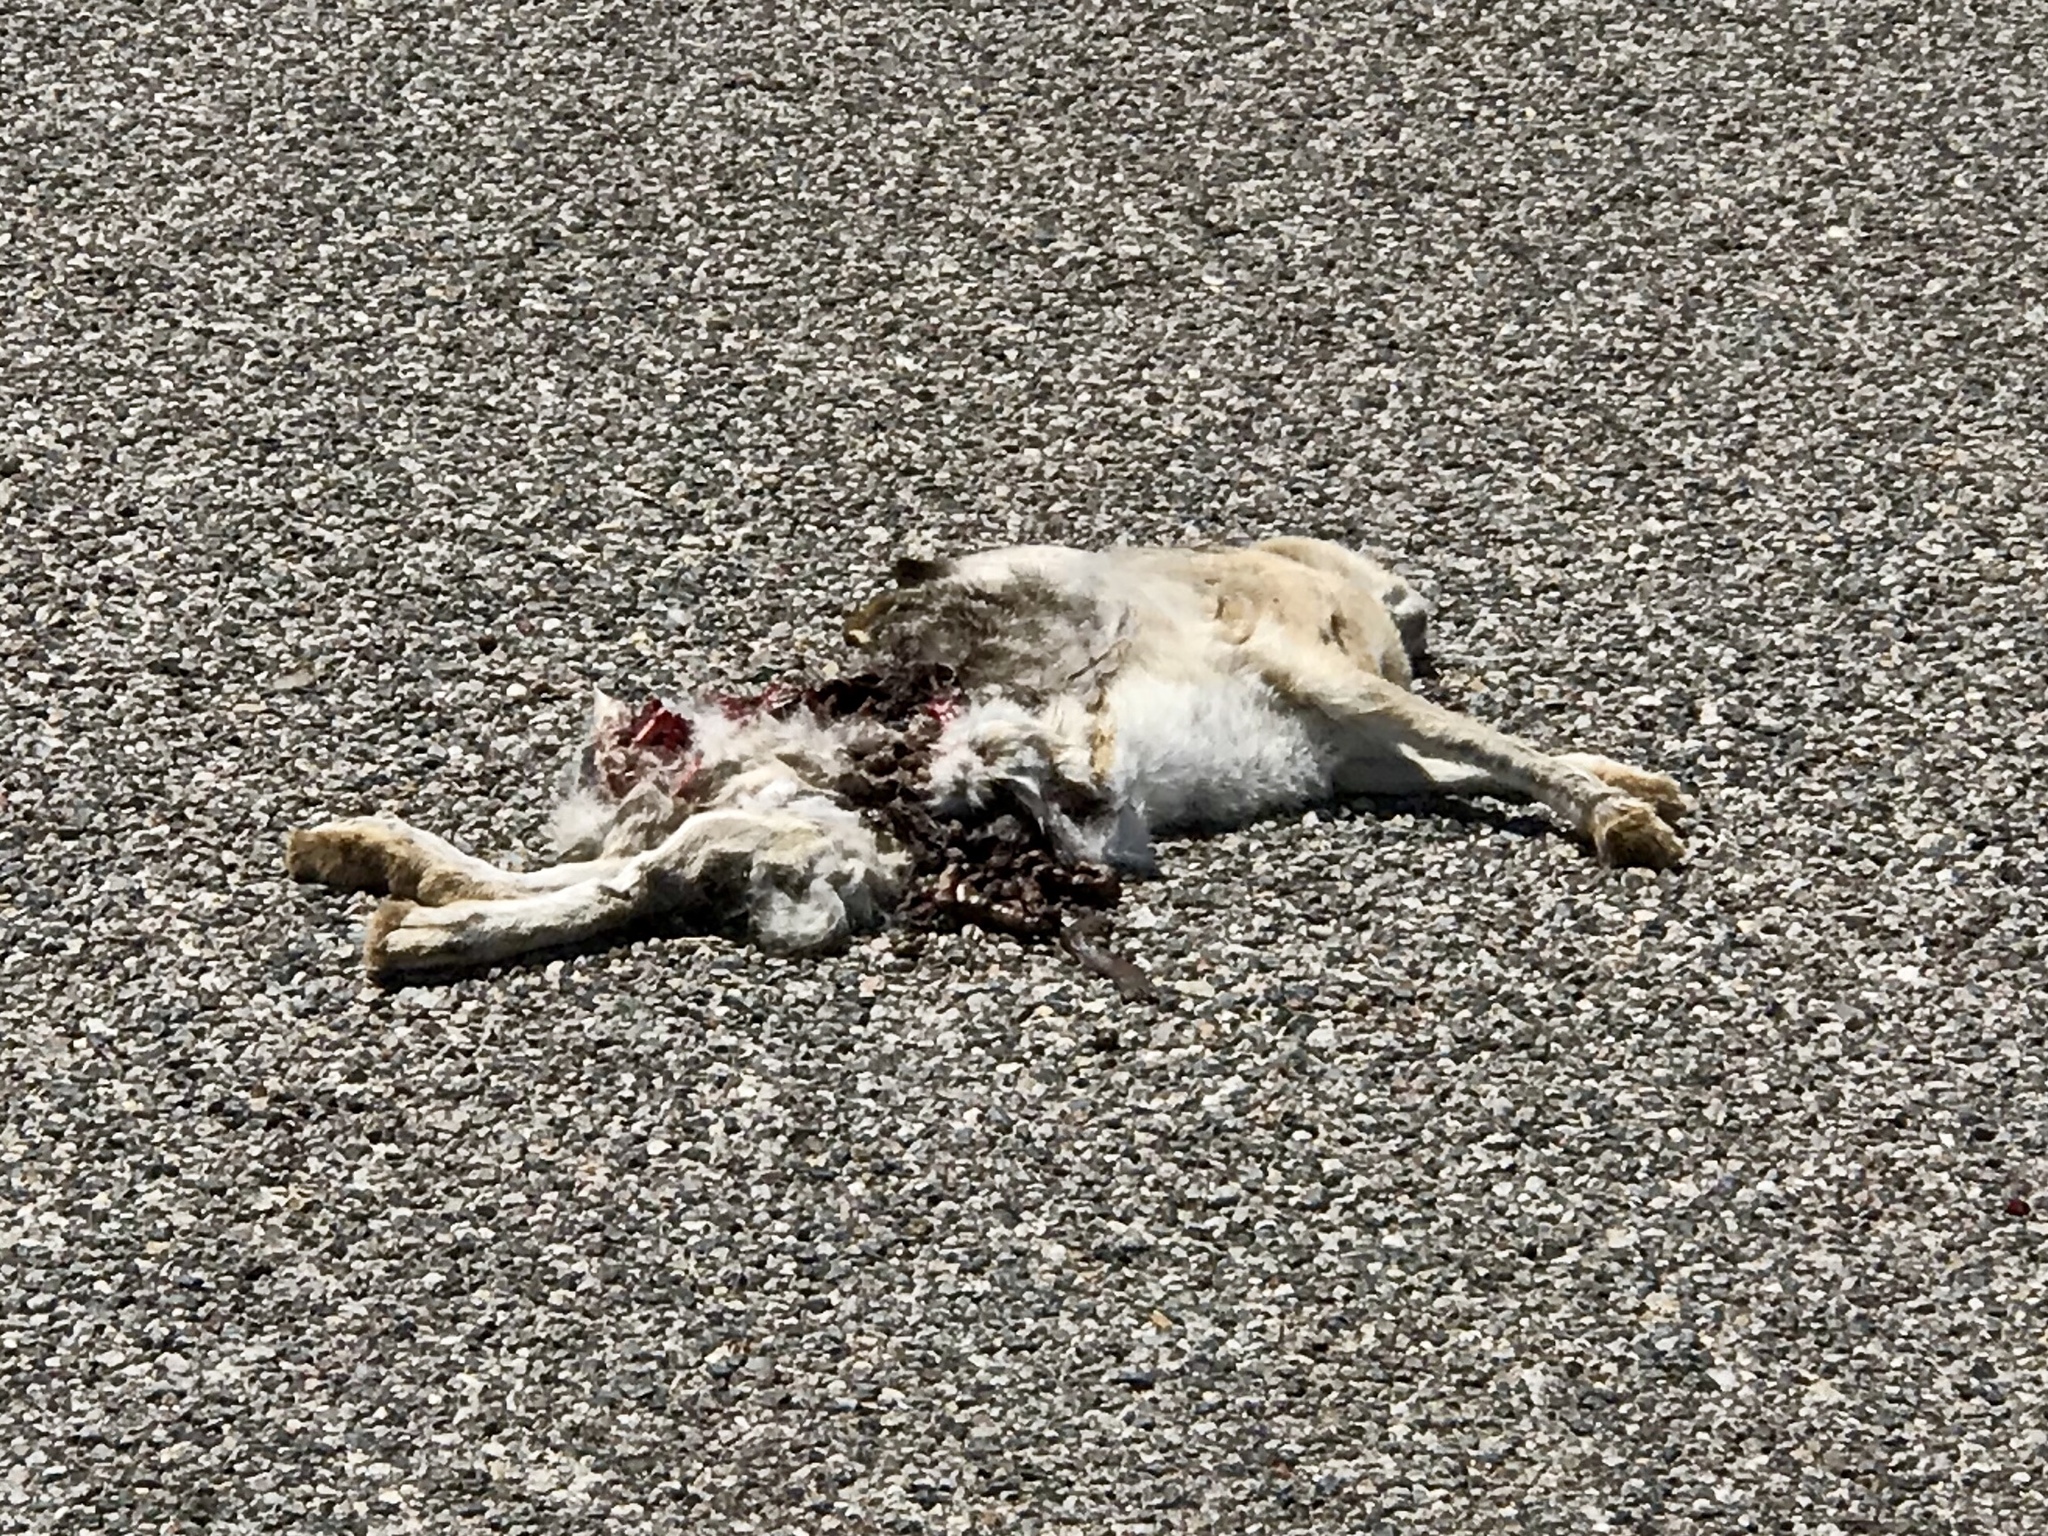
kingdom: Animalia
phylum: Chordata
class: Mammalia
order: Lagomorpha
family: Leporidae
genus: Lepus
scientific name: Lepus californicus
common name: Black-tailed jackrabbit
